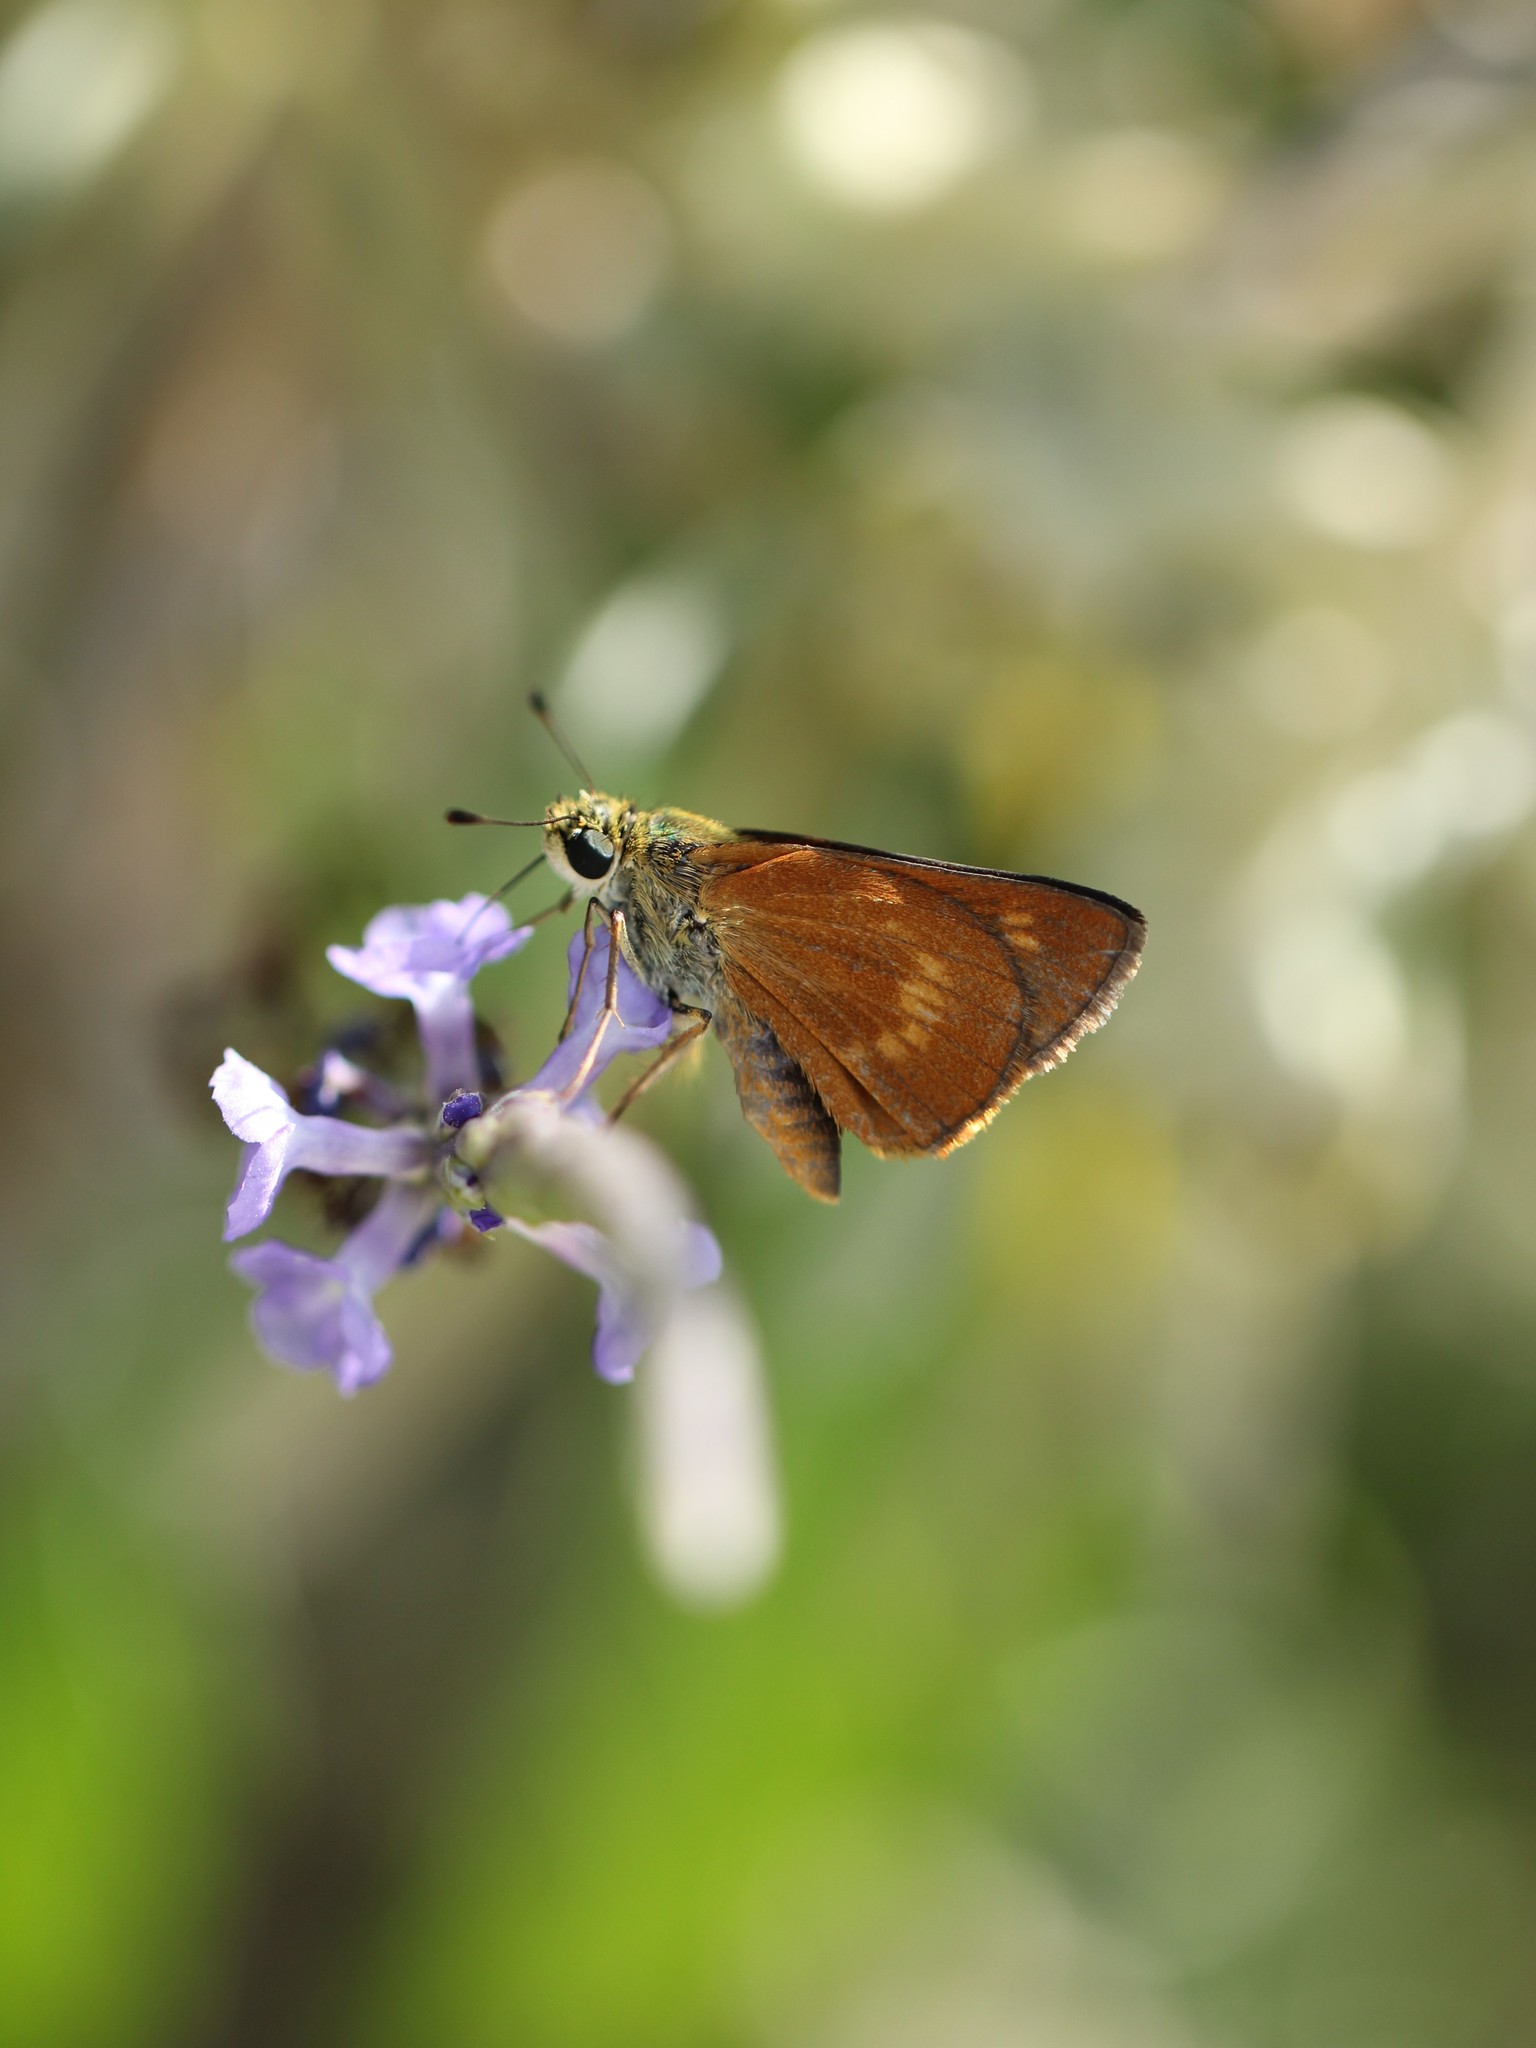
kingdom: Animalia
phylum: Arthropoda
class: Insecta
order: Lepidoptera
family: Hesperiidae
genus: Polites
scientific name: Polites otho
